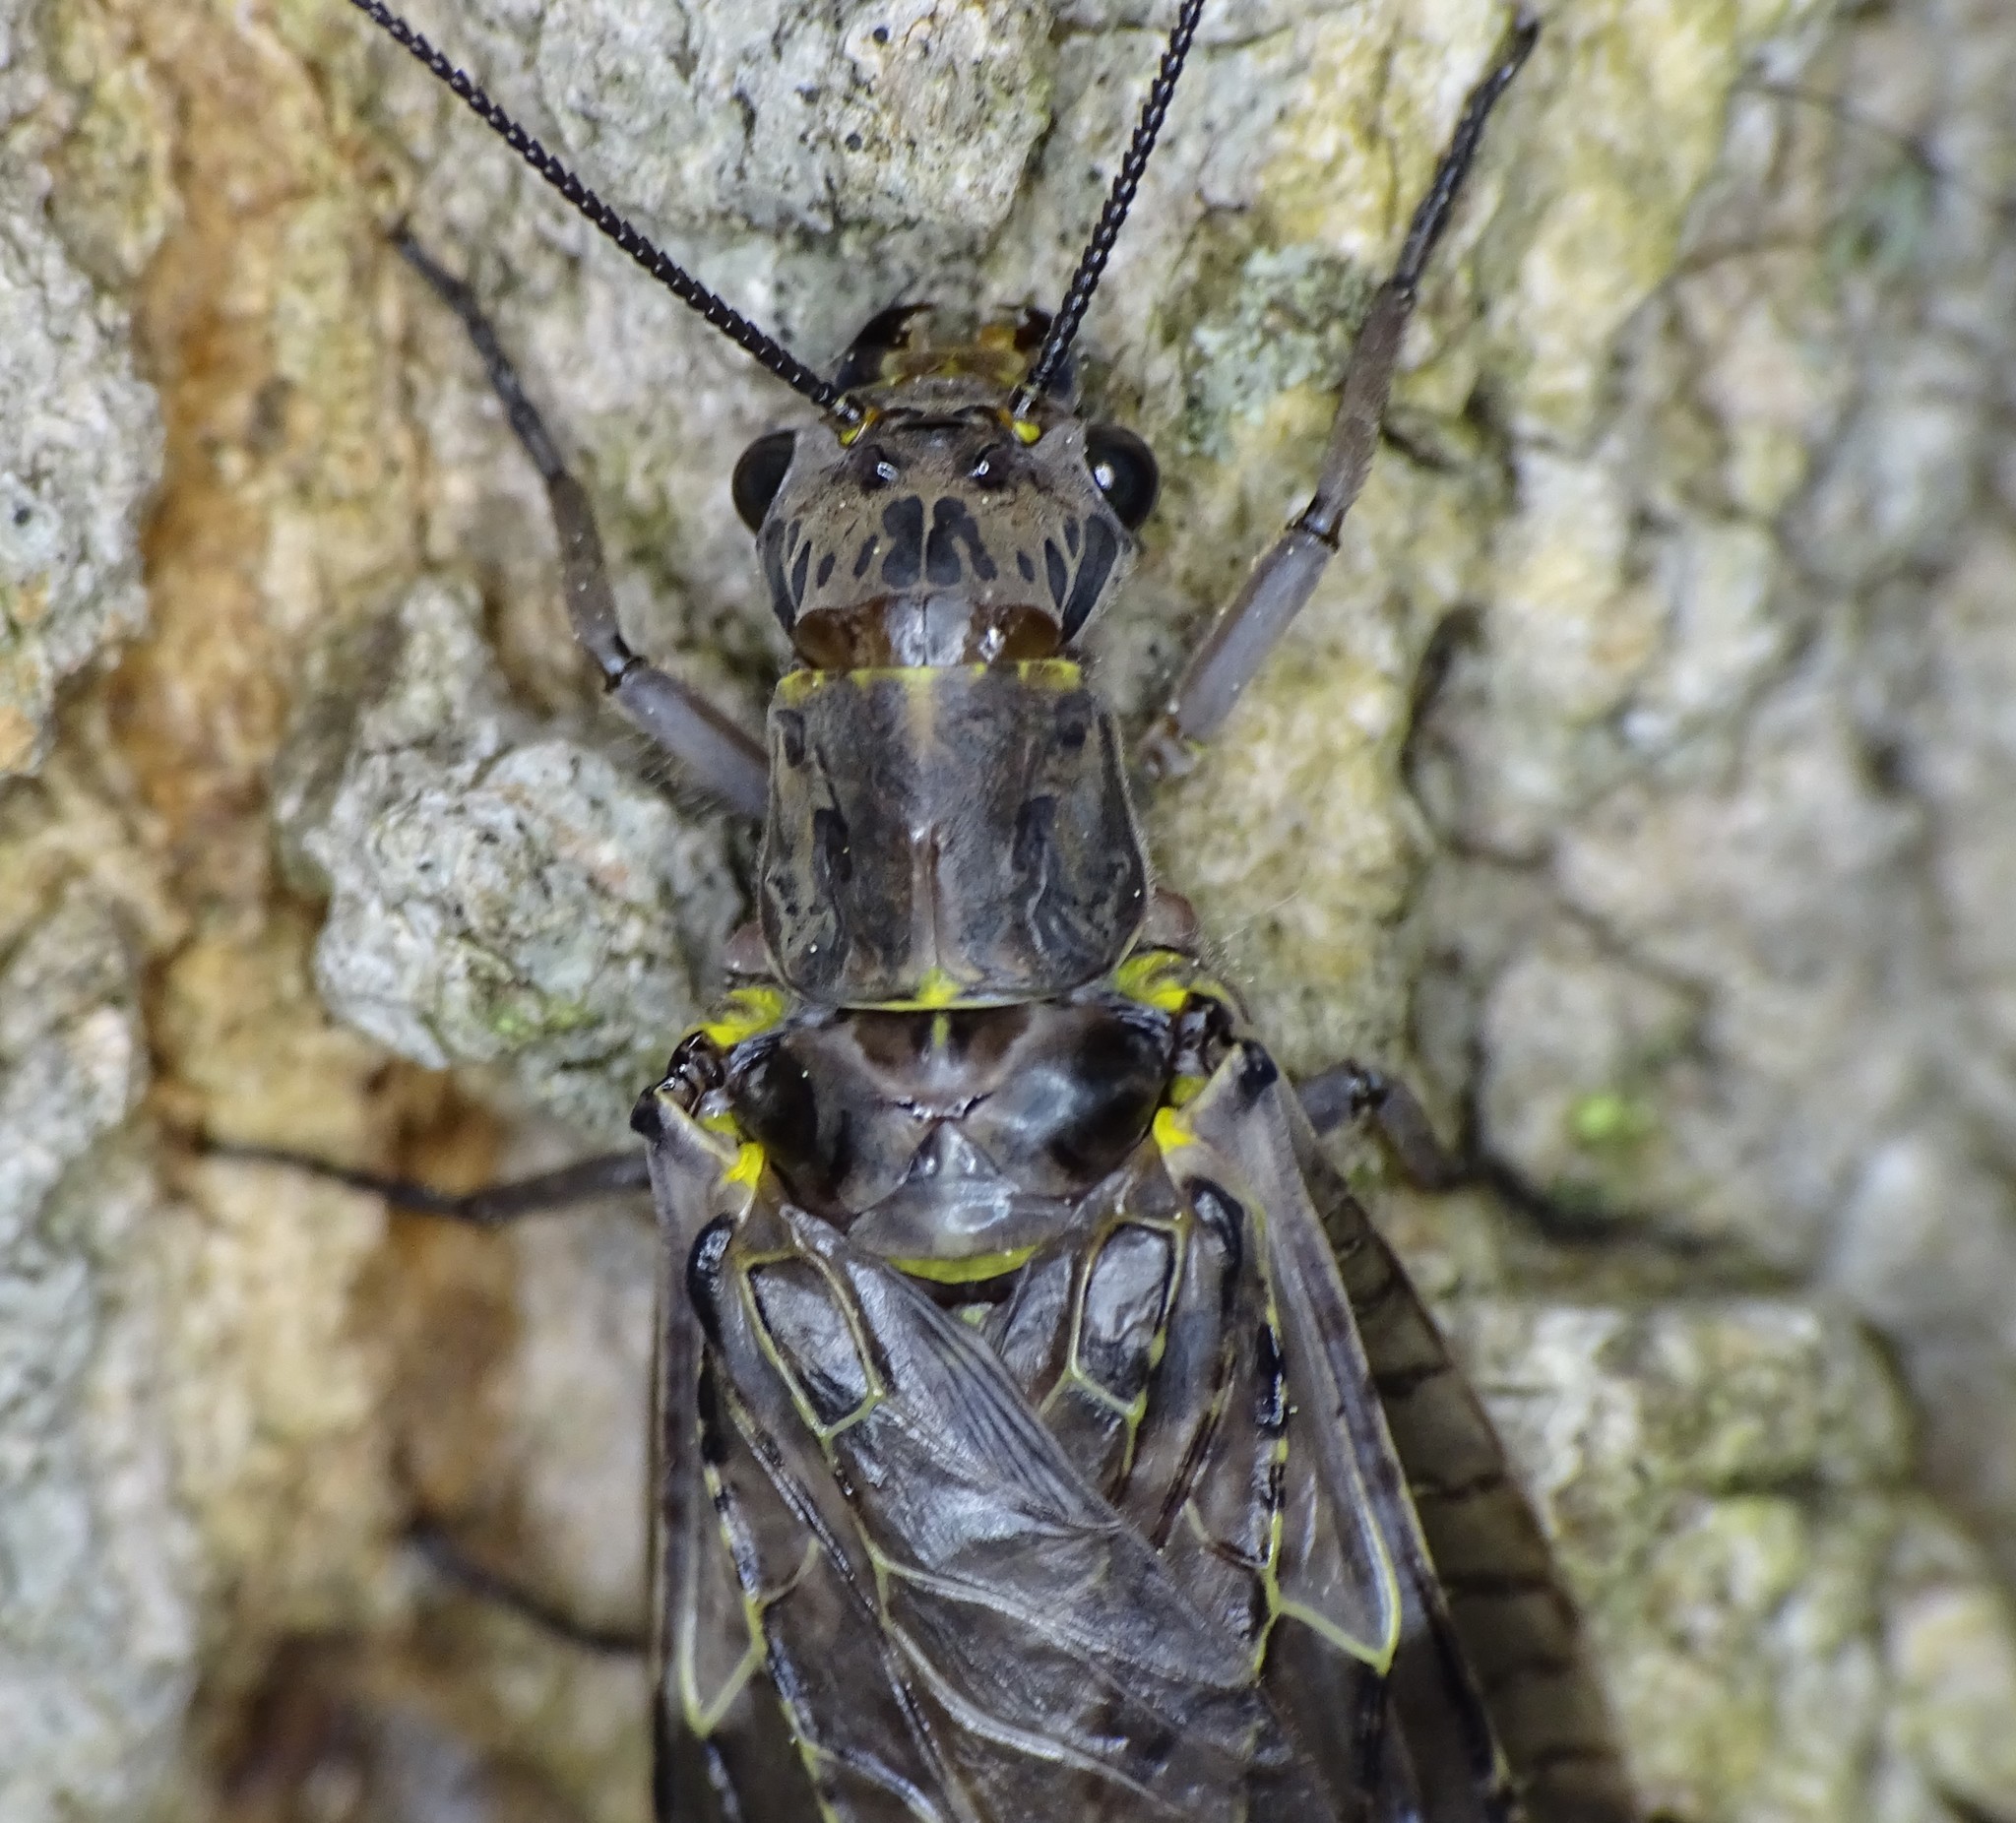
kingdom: Animalia
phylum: Arthropoda
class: Insecta
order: Megaloptera
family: Corydalidae
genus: Chauliodes
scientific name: Chauliodes rastricornis
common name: Spring fishfly
